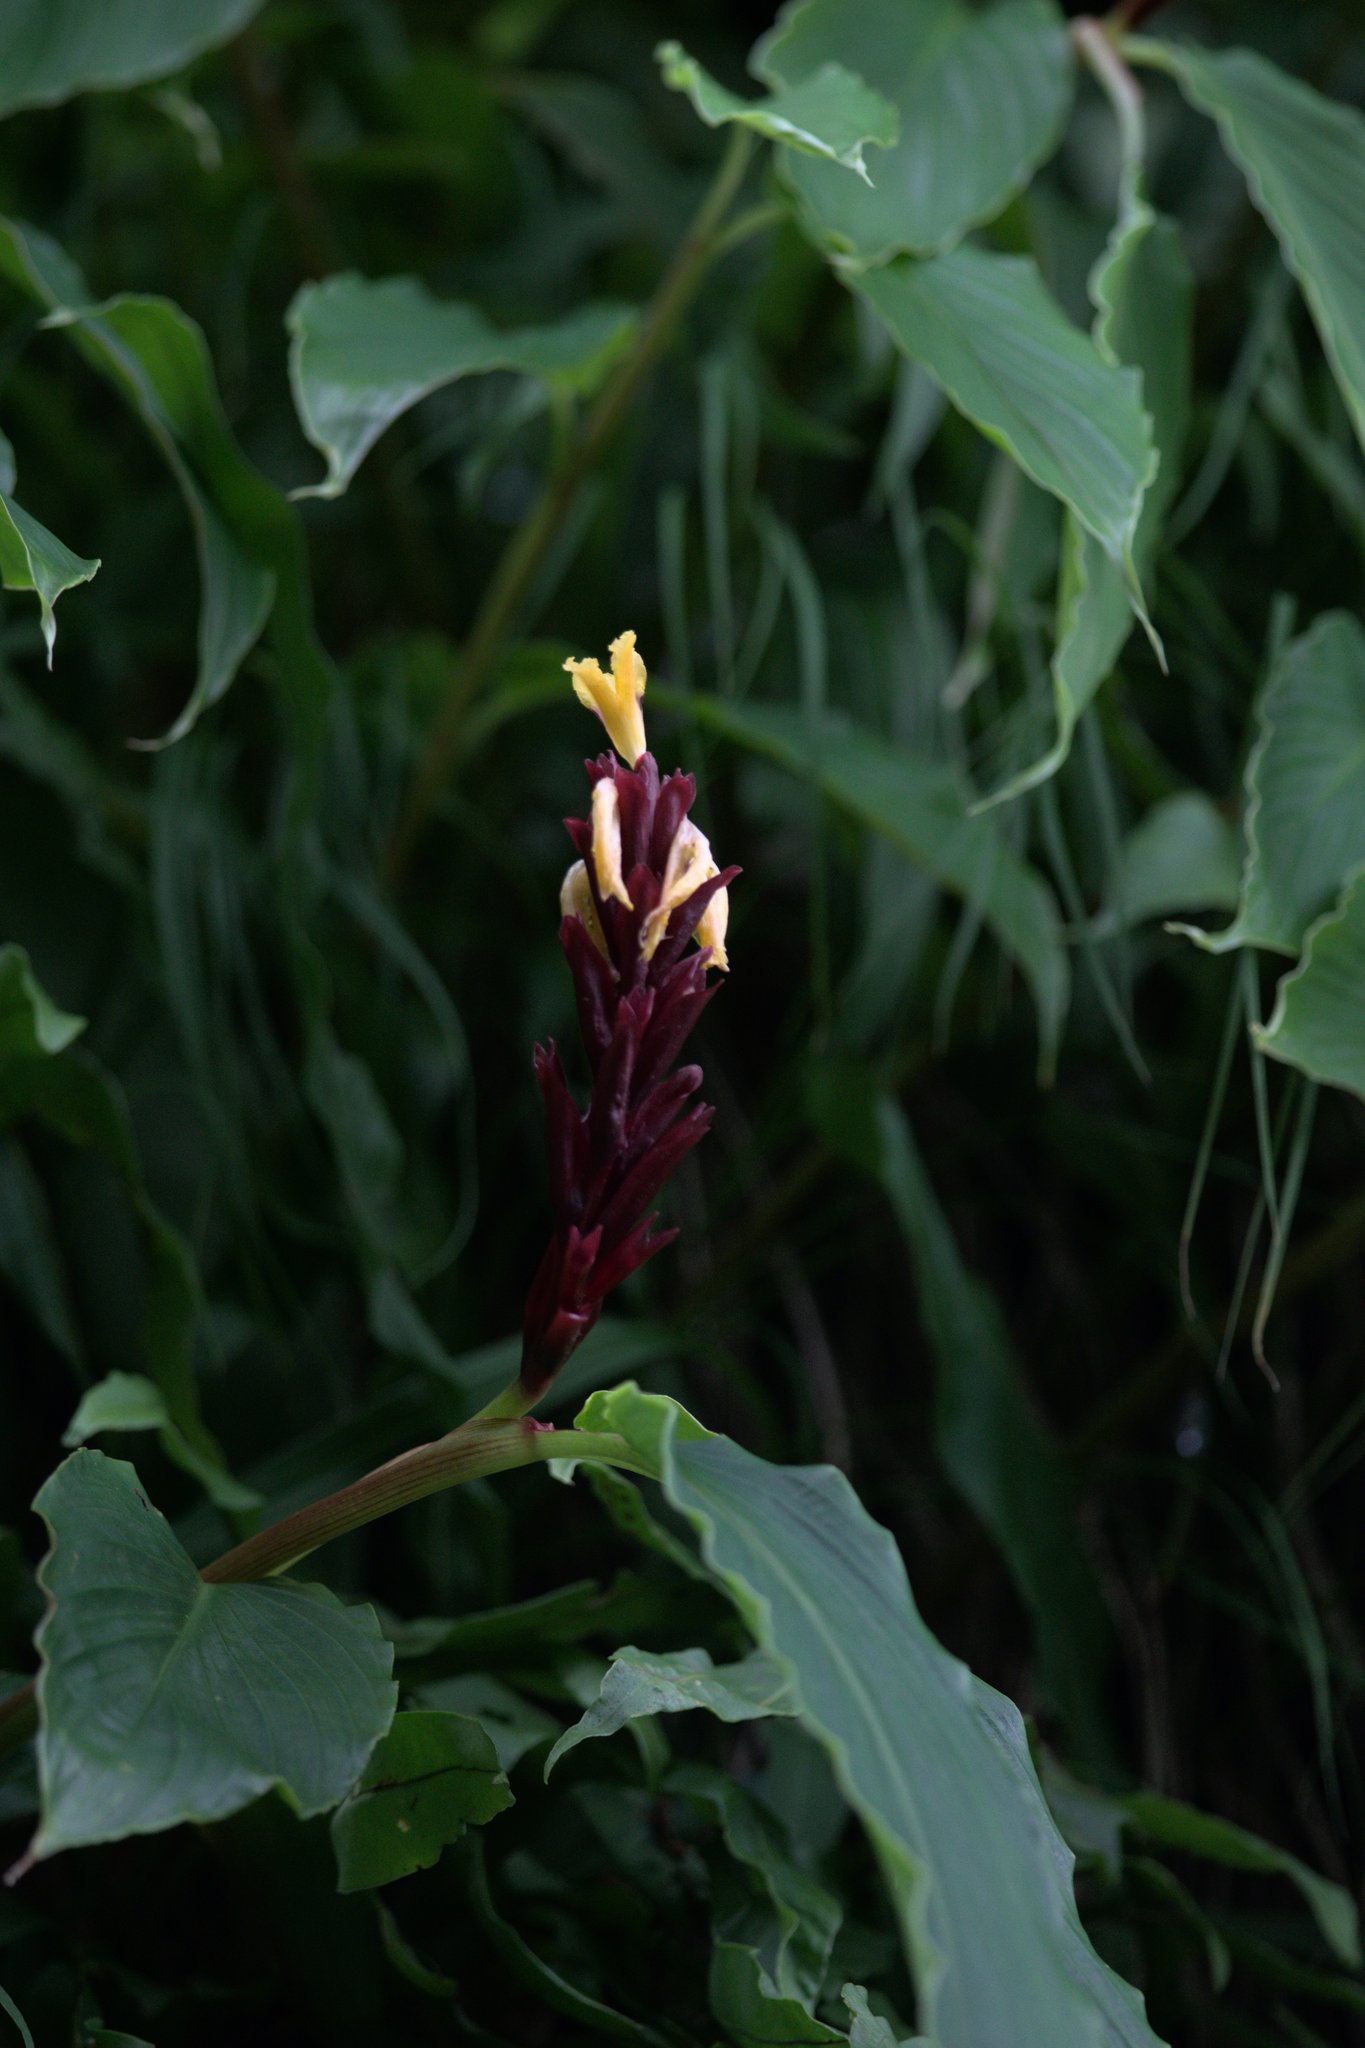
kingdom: Plantae
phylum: Tracheophyta
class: Liliopsida
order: Zingiberales
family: Zingiberaceae
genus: Cautleya
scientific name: Cautleya spicata
